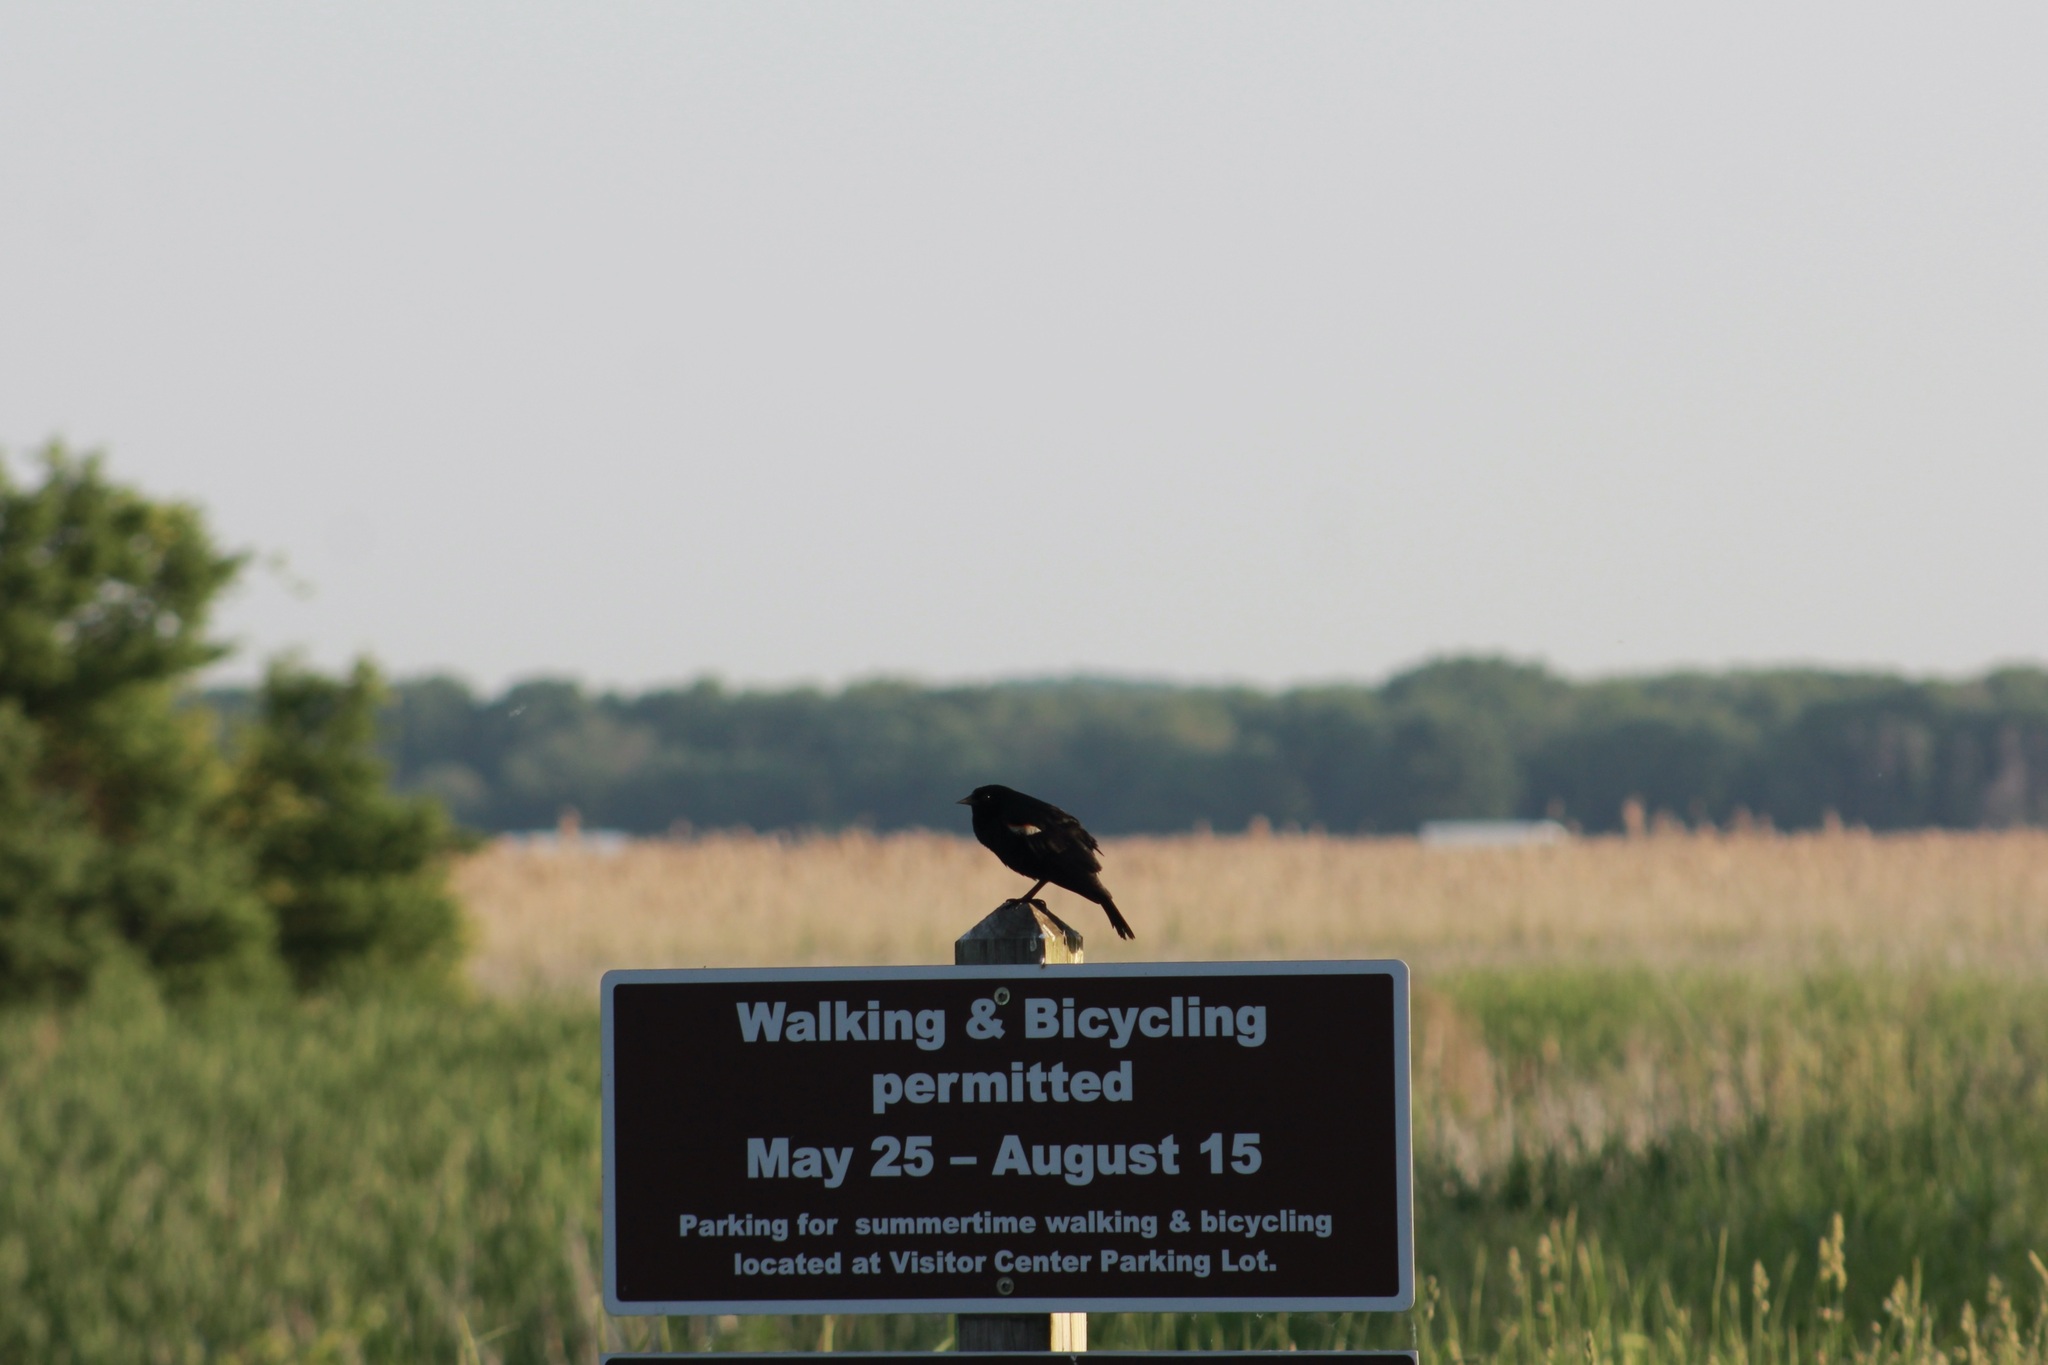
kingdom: Animalia
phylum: Chordata
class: Aves
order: Passeriformes
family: Icteridae
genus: Agelaius
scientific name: Agelaius phoeniceus
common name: Red-winged blackbird
